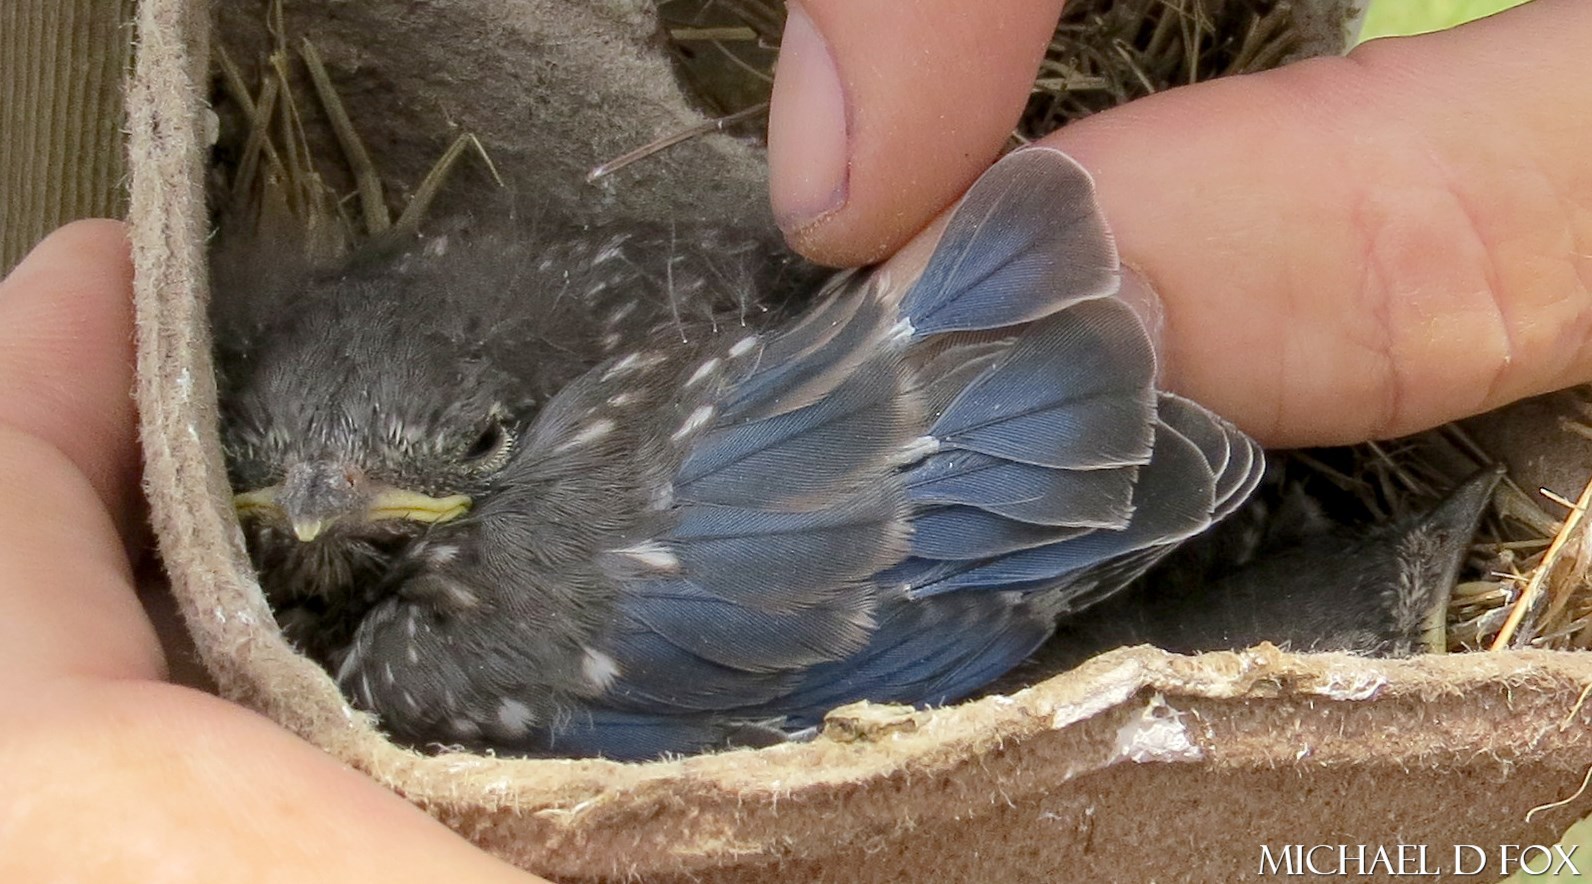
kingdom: Animalia
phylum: Chordata
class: Aves
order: Passeriformes
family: Turdidae
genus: Sialia
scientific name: Sialia sialis
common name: Eastern bluebird
